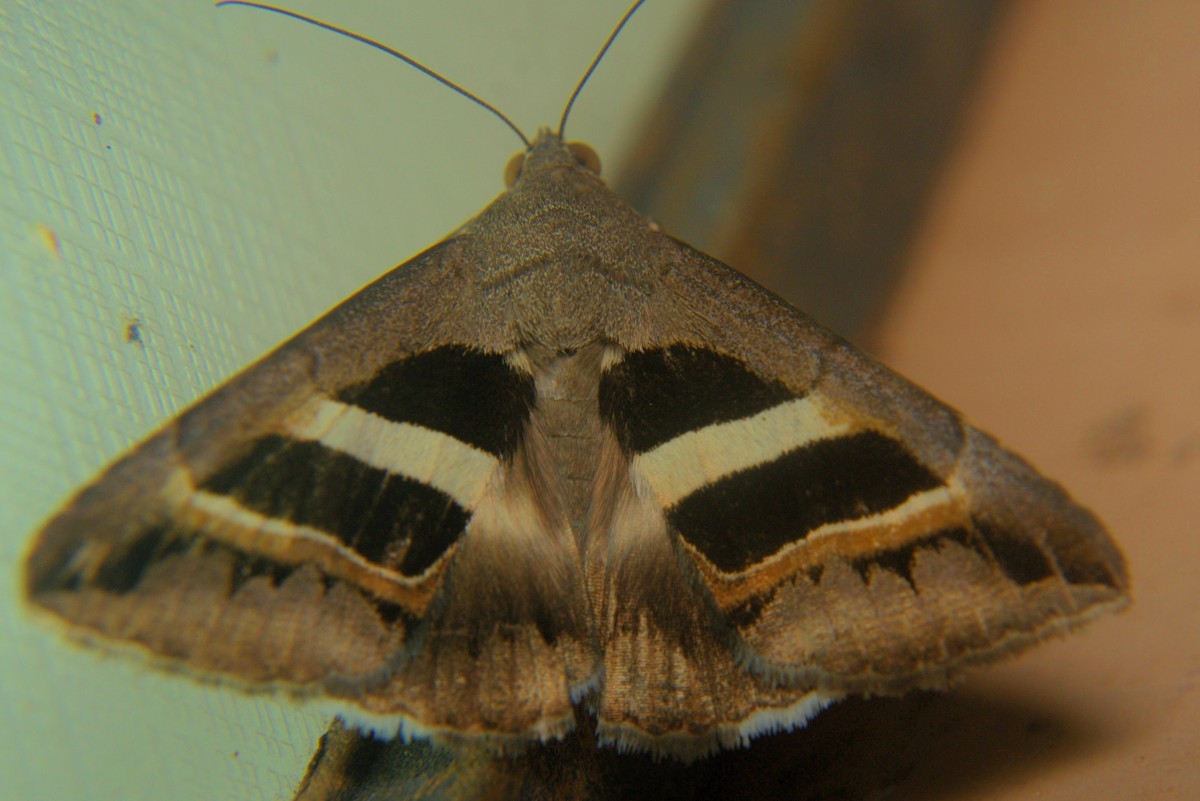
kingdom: Animalia
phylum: Arthropoda
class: Insecta
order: Lepidoptera
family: Erebidae
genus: Grammodes
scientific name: Grammodes geometrica
